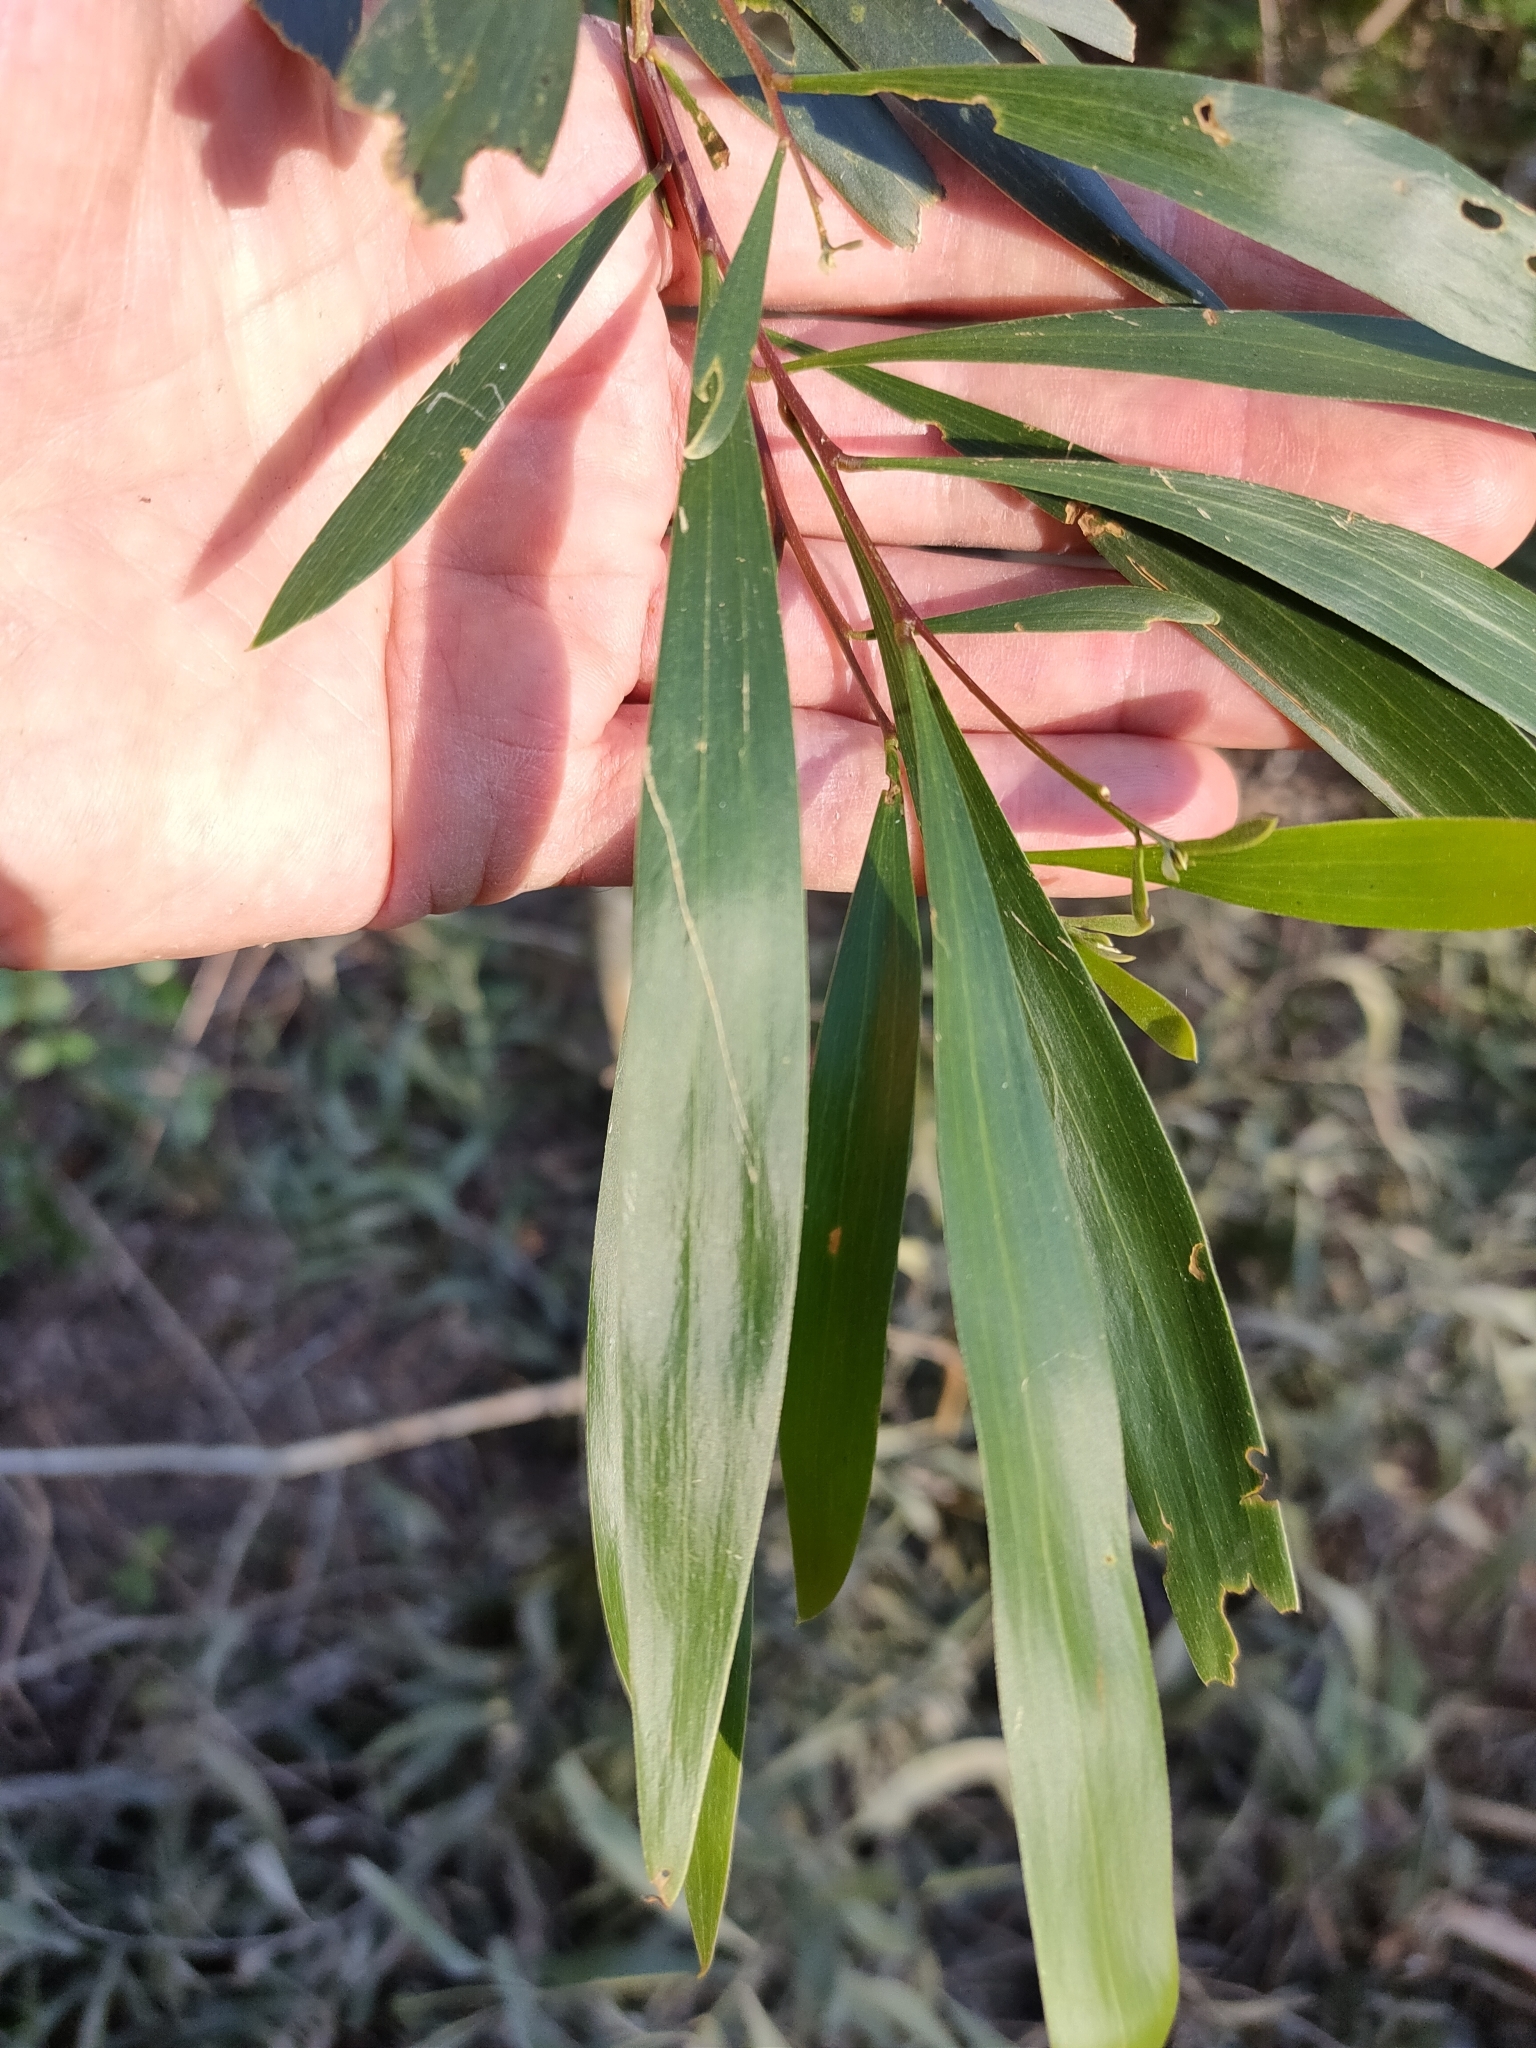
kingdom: Plantae
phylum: Tracheophyta
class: Magnoliopsida
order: Fabales
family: Fabaceae
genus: Acacia
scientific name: Acacia maidenii
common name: Maiden's wattle
